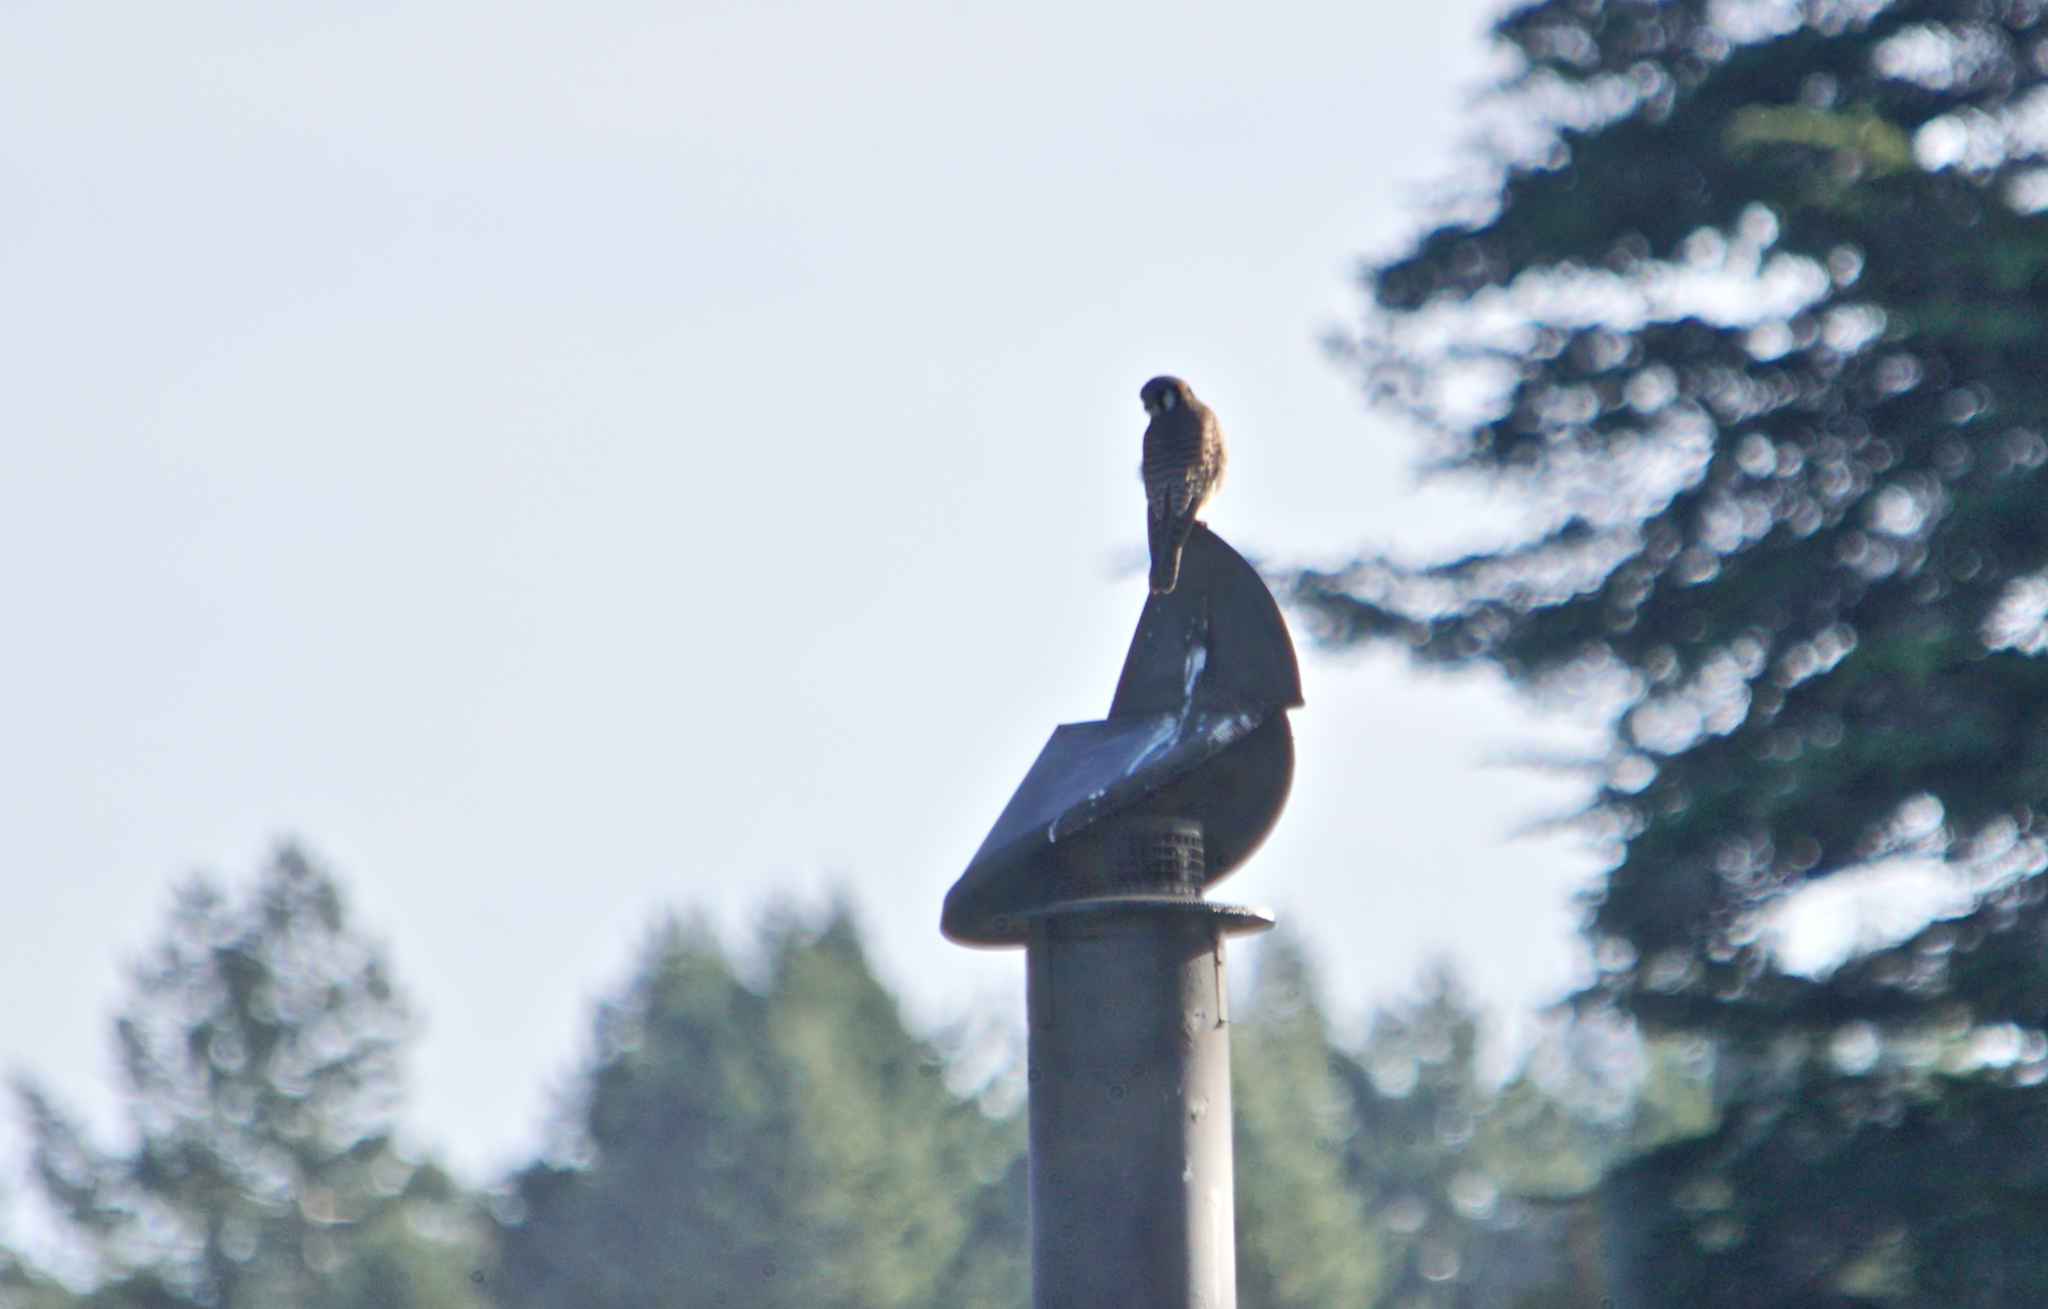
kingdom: Animalia
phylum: Chordata
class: Aves
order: Falconiformes
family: Falconidae
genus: Falco
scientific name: Falco sparverius
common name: American kestrel
